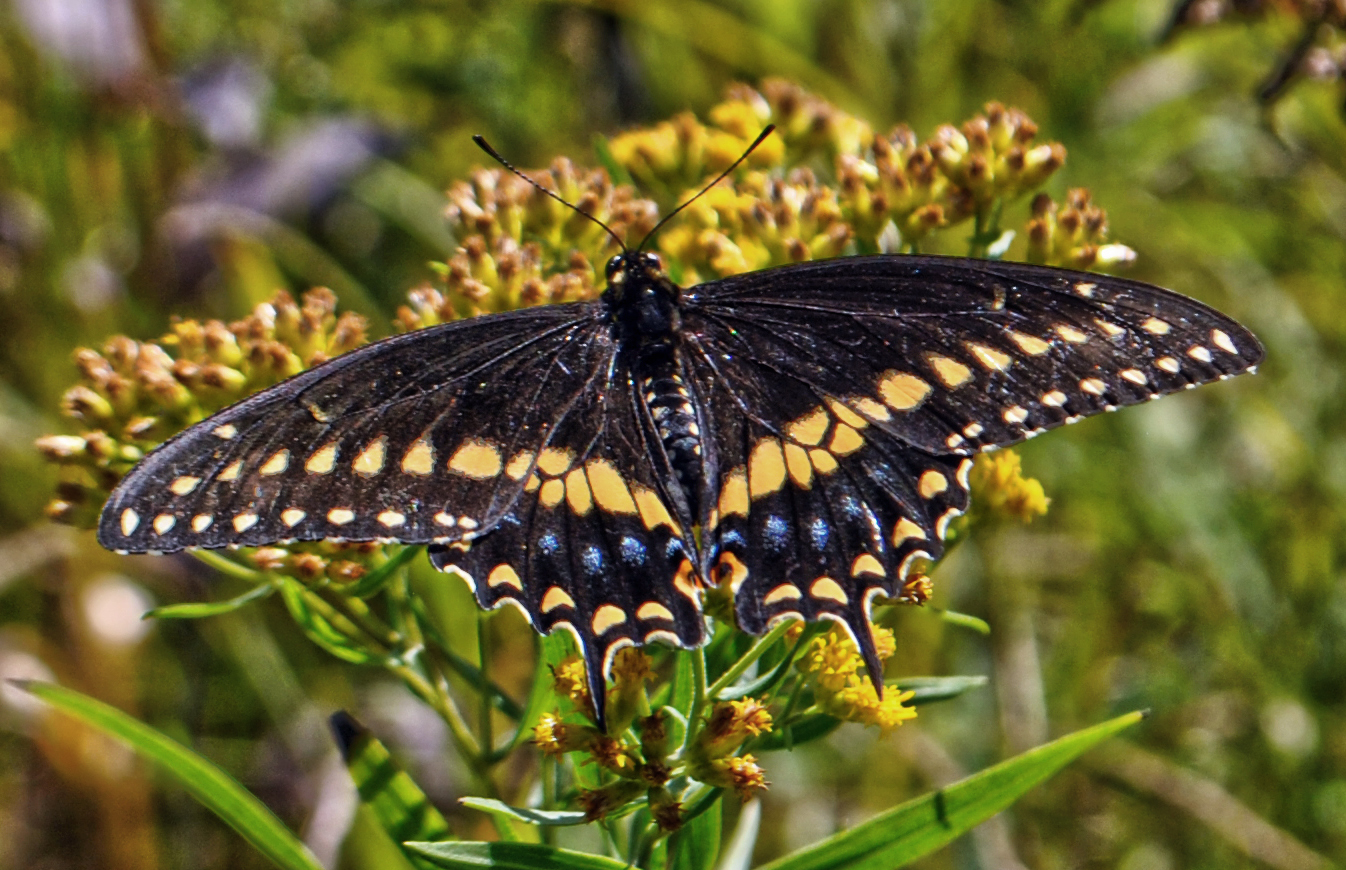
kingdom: Animalia
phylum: Arthropoda
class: Insecta
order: Lepidoptera
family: Papilionidae
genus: Papilio
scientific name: Papilio polyxenes
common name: Black swallowtail
